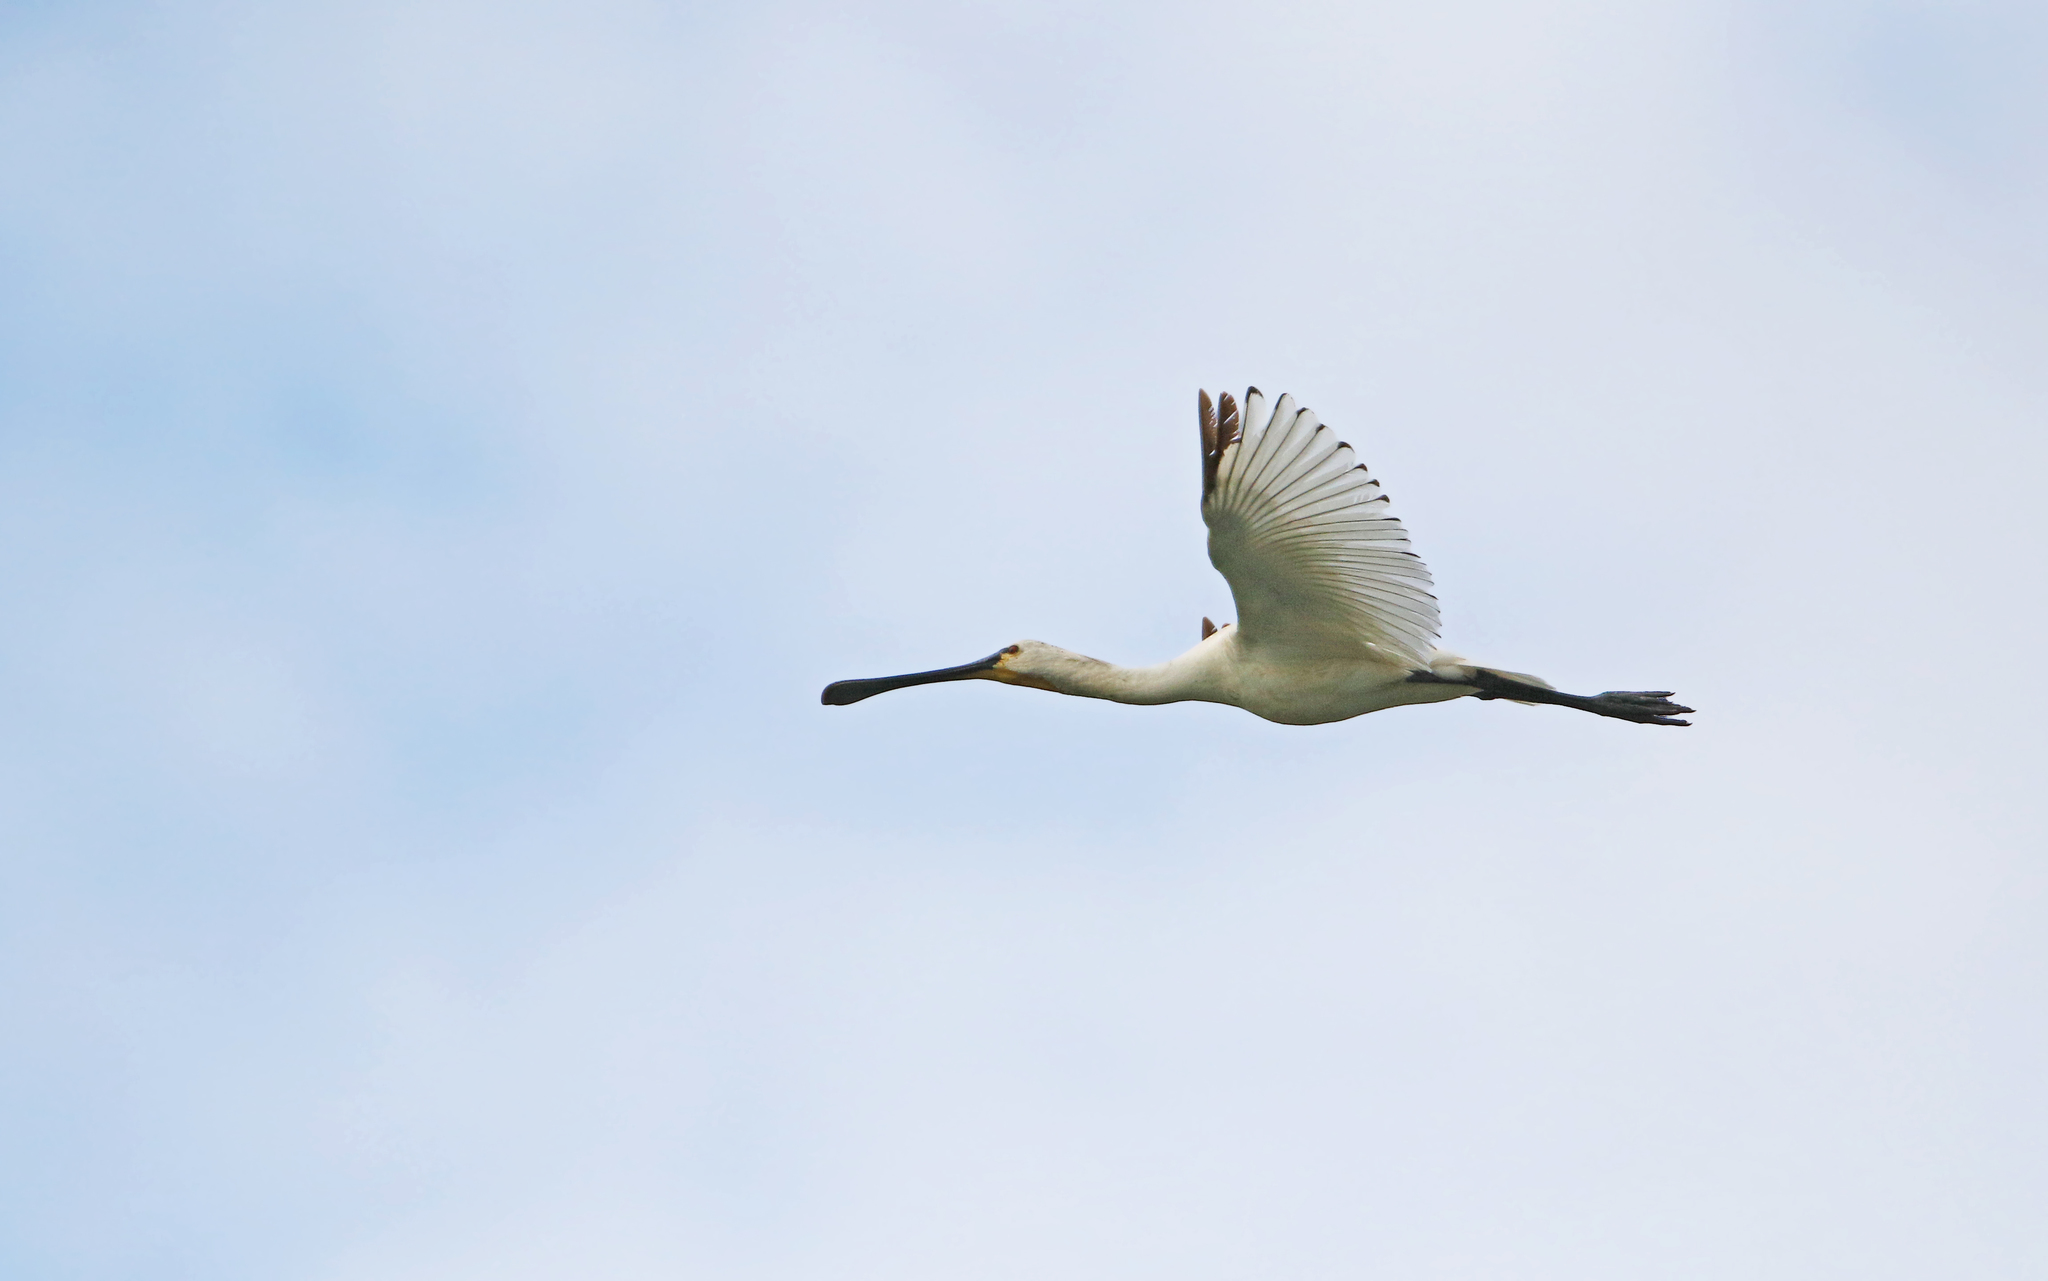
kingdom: Animalia
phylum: Chordata
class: Aves
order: Pelecaniformes
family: Threskiornithidae
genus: Platalea
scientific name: Platalea leucorodia
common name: Eurasian spoonbill
